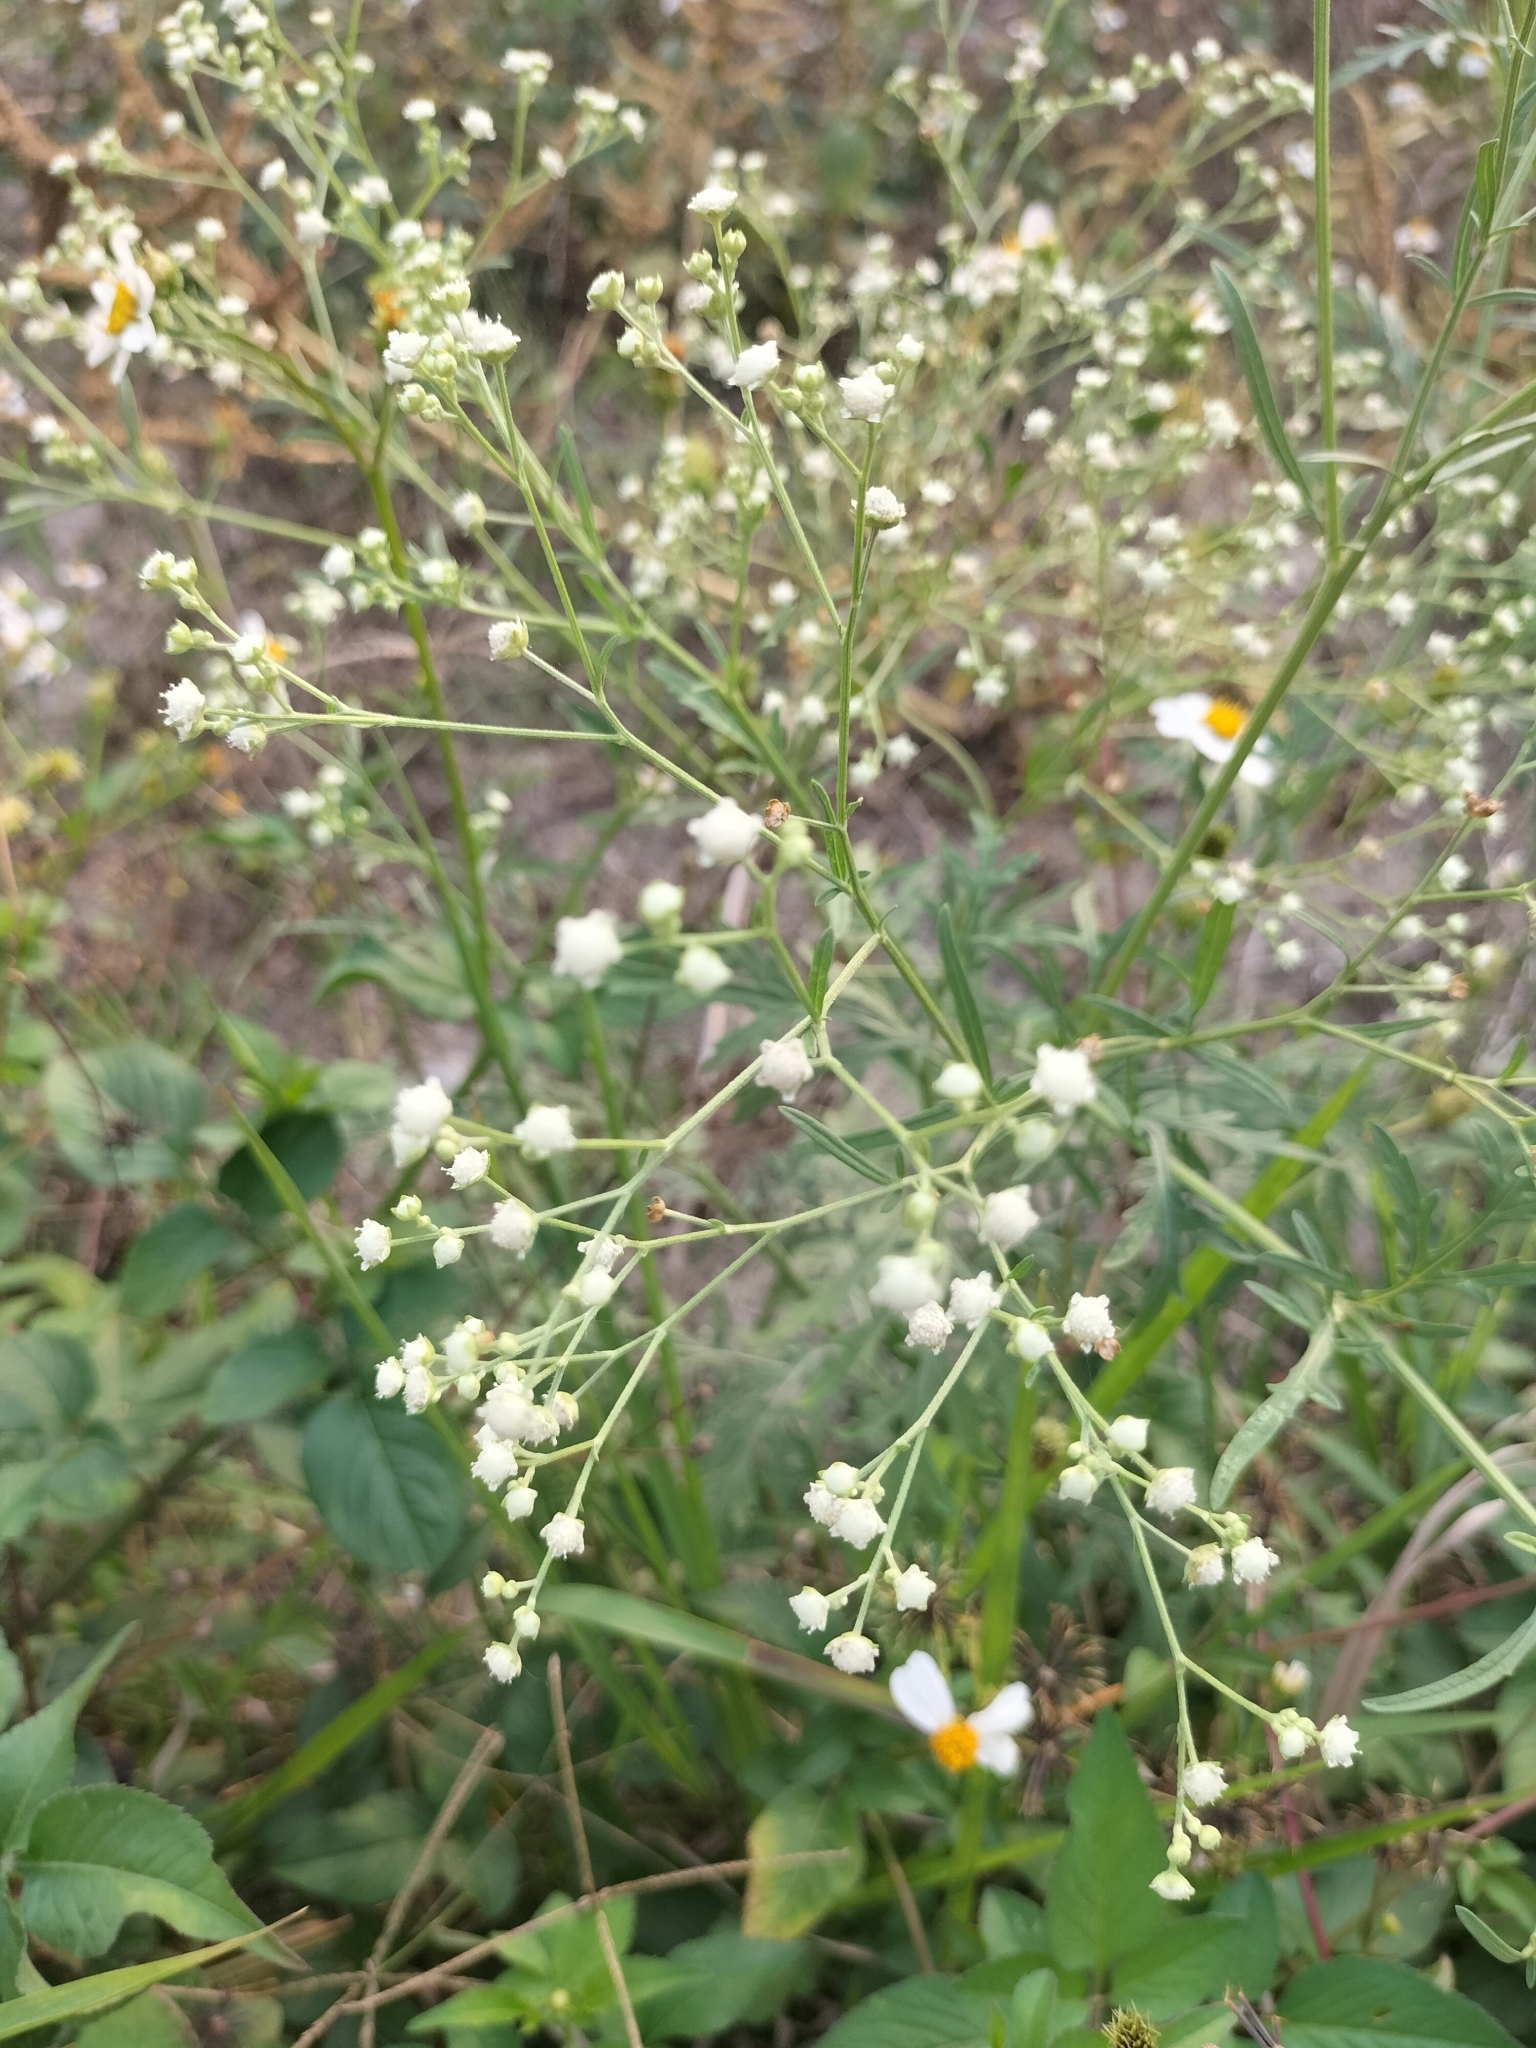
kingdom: Plantae
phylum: Tracheophyta
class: Magnoliopsida
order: Asterales
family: Asteraceae
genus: Parthenium
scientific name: Parthenium hysterophorus
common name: Santa maria feverfew
